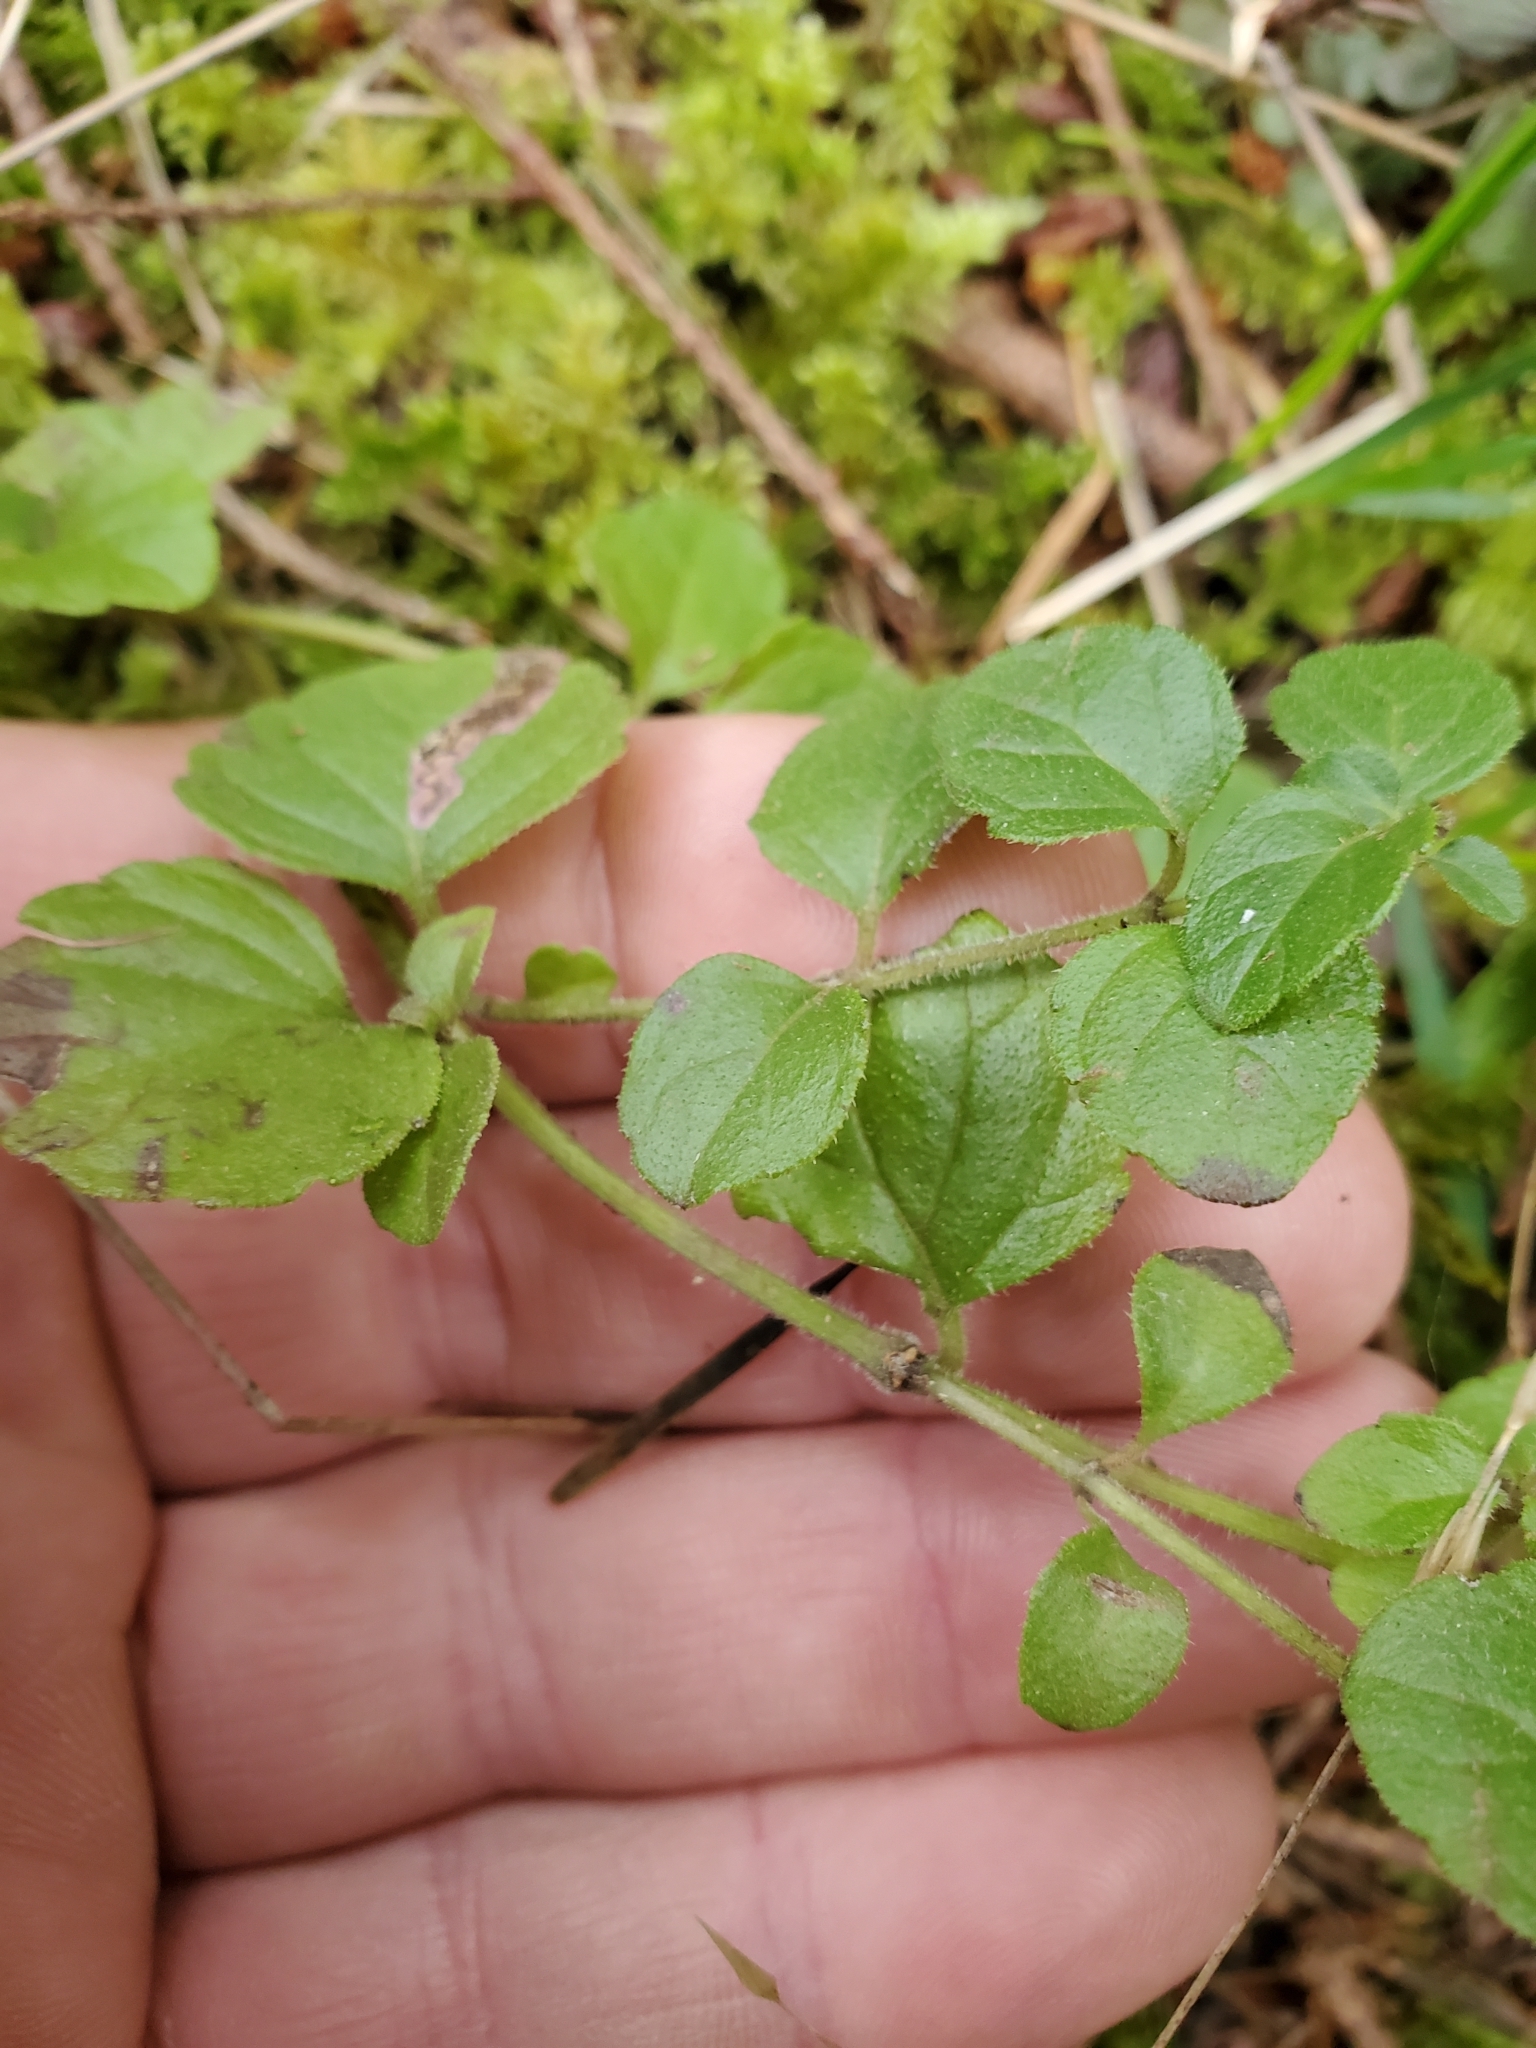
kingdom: Plantae
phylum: Tracheophyta
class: Magnoliopsida
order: Lamiales
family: Lamiaceae
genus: Micromeria
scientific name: Micromeria douglasii
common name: Yerba buena
